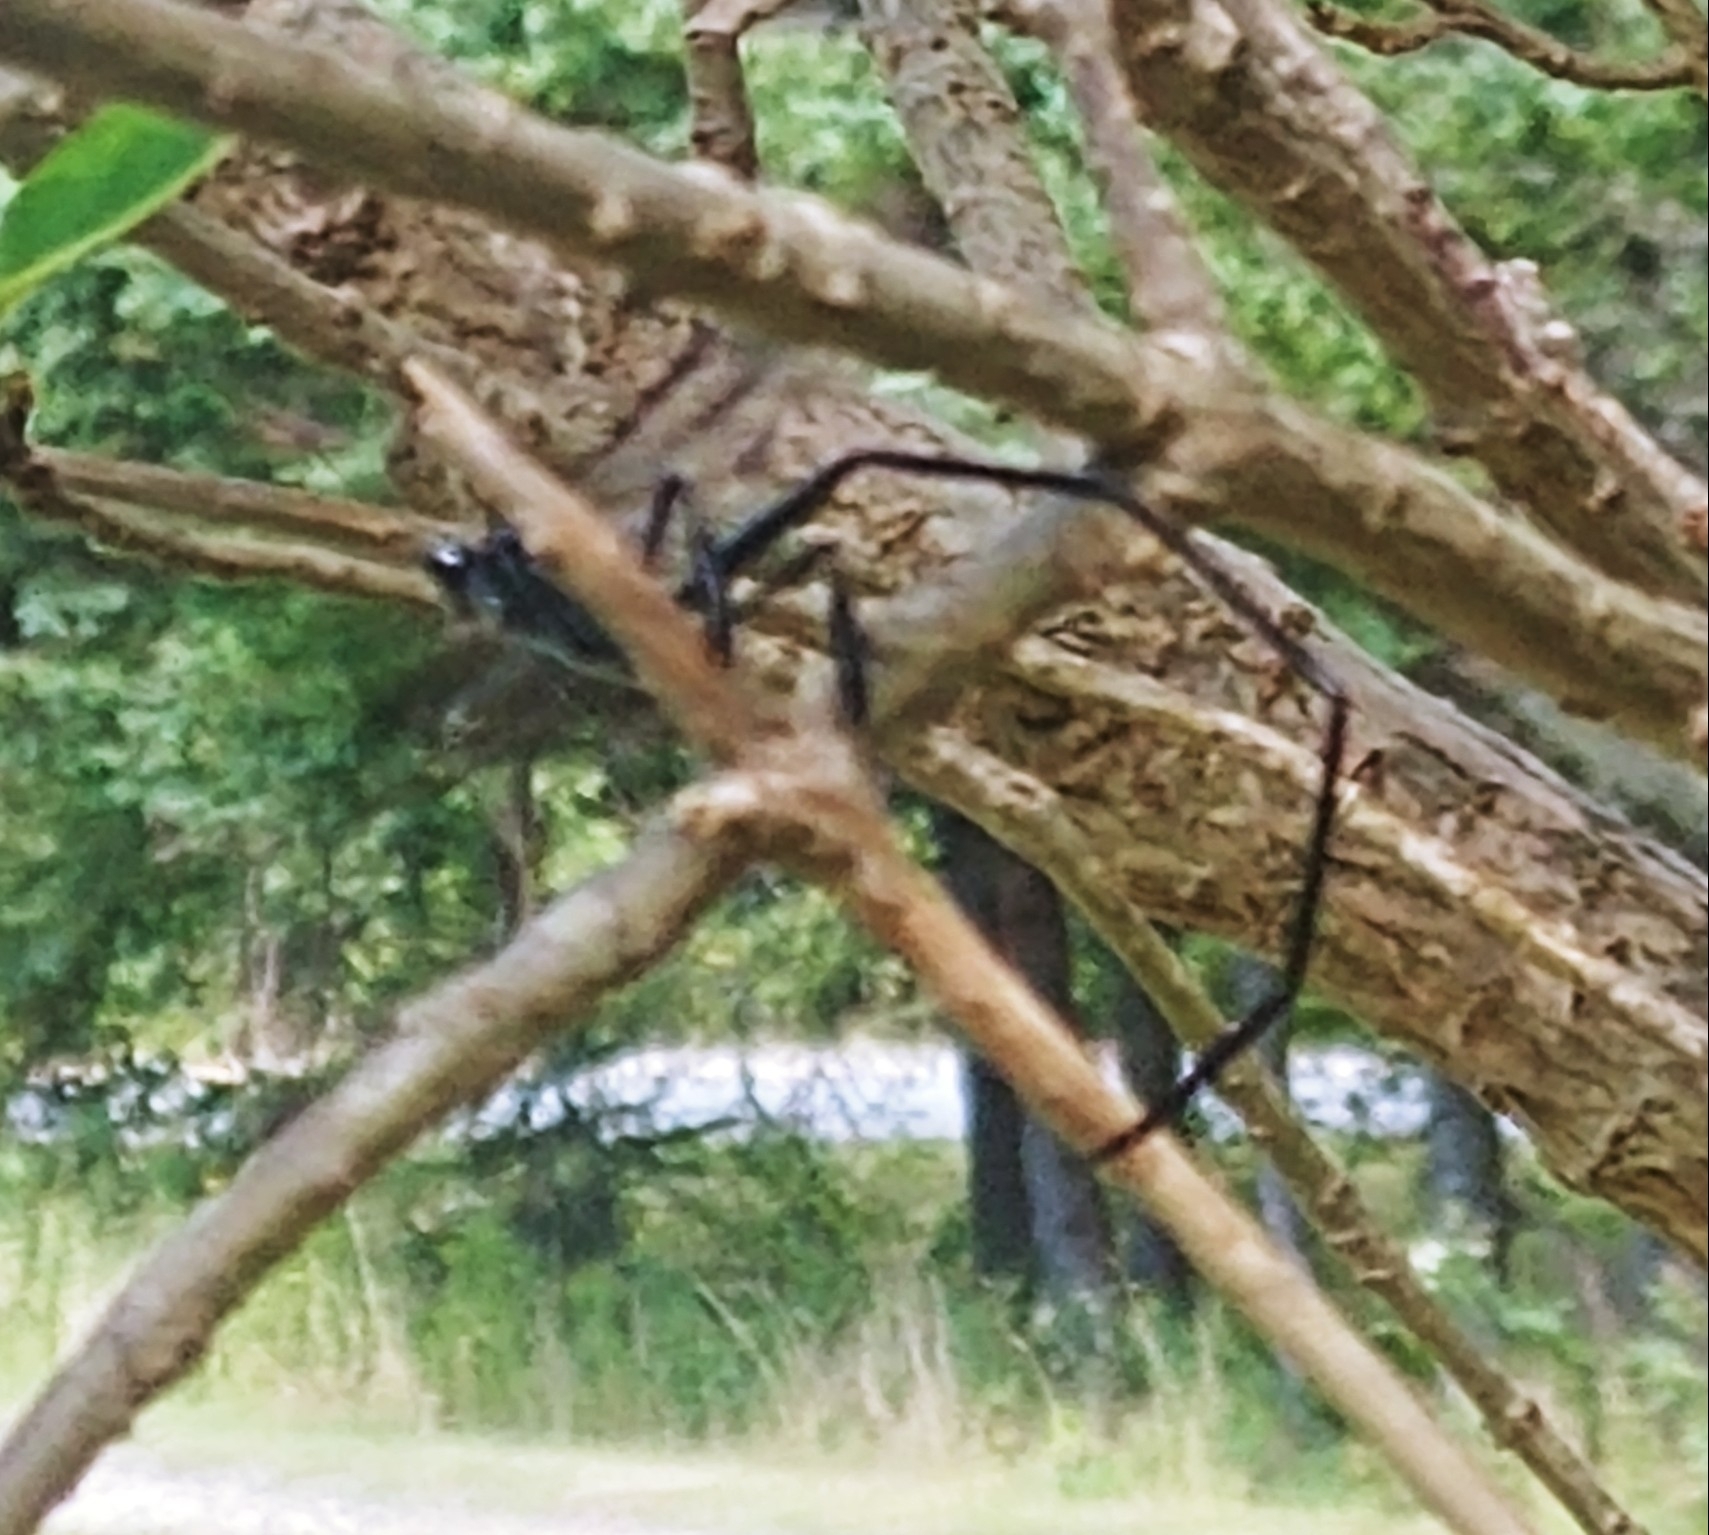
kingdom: Animalia
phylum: Arthropoda
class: Insecta
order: Hymenoptera
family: Pelecinidae
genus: Pelecinus
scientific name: Pelecinus polyturator
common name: American pelecinid wasp
